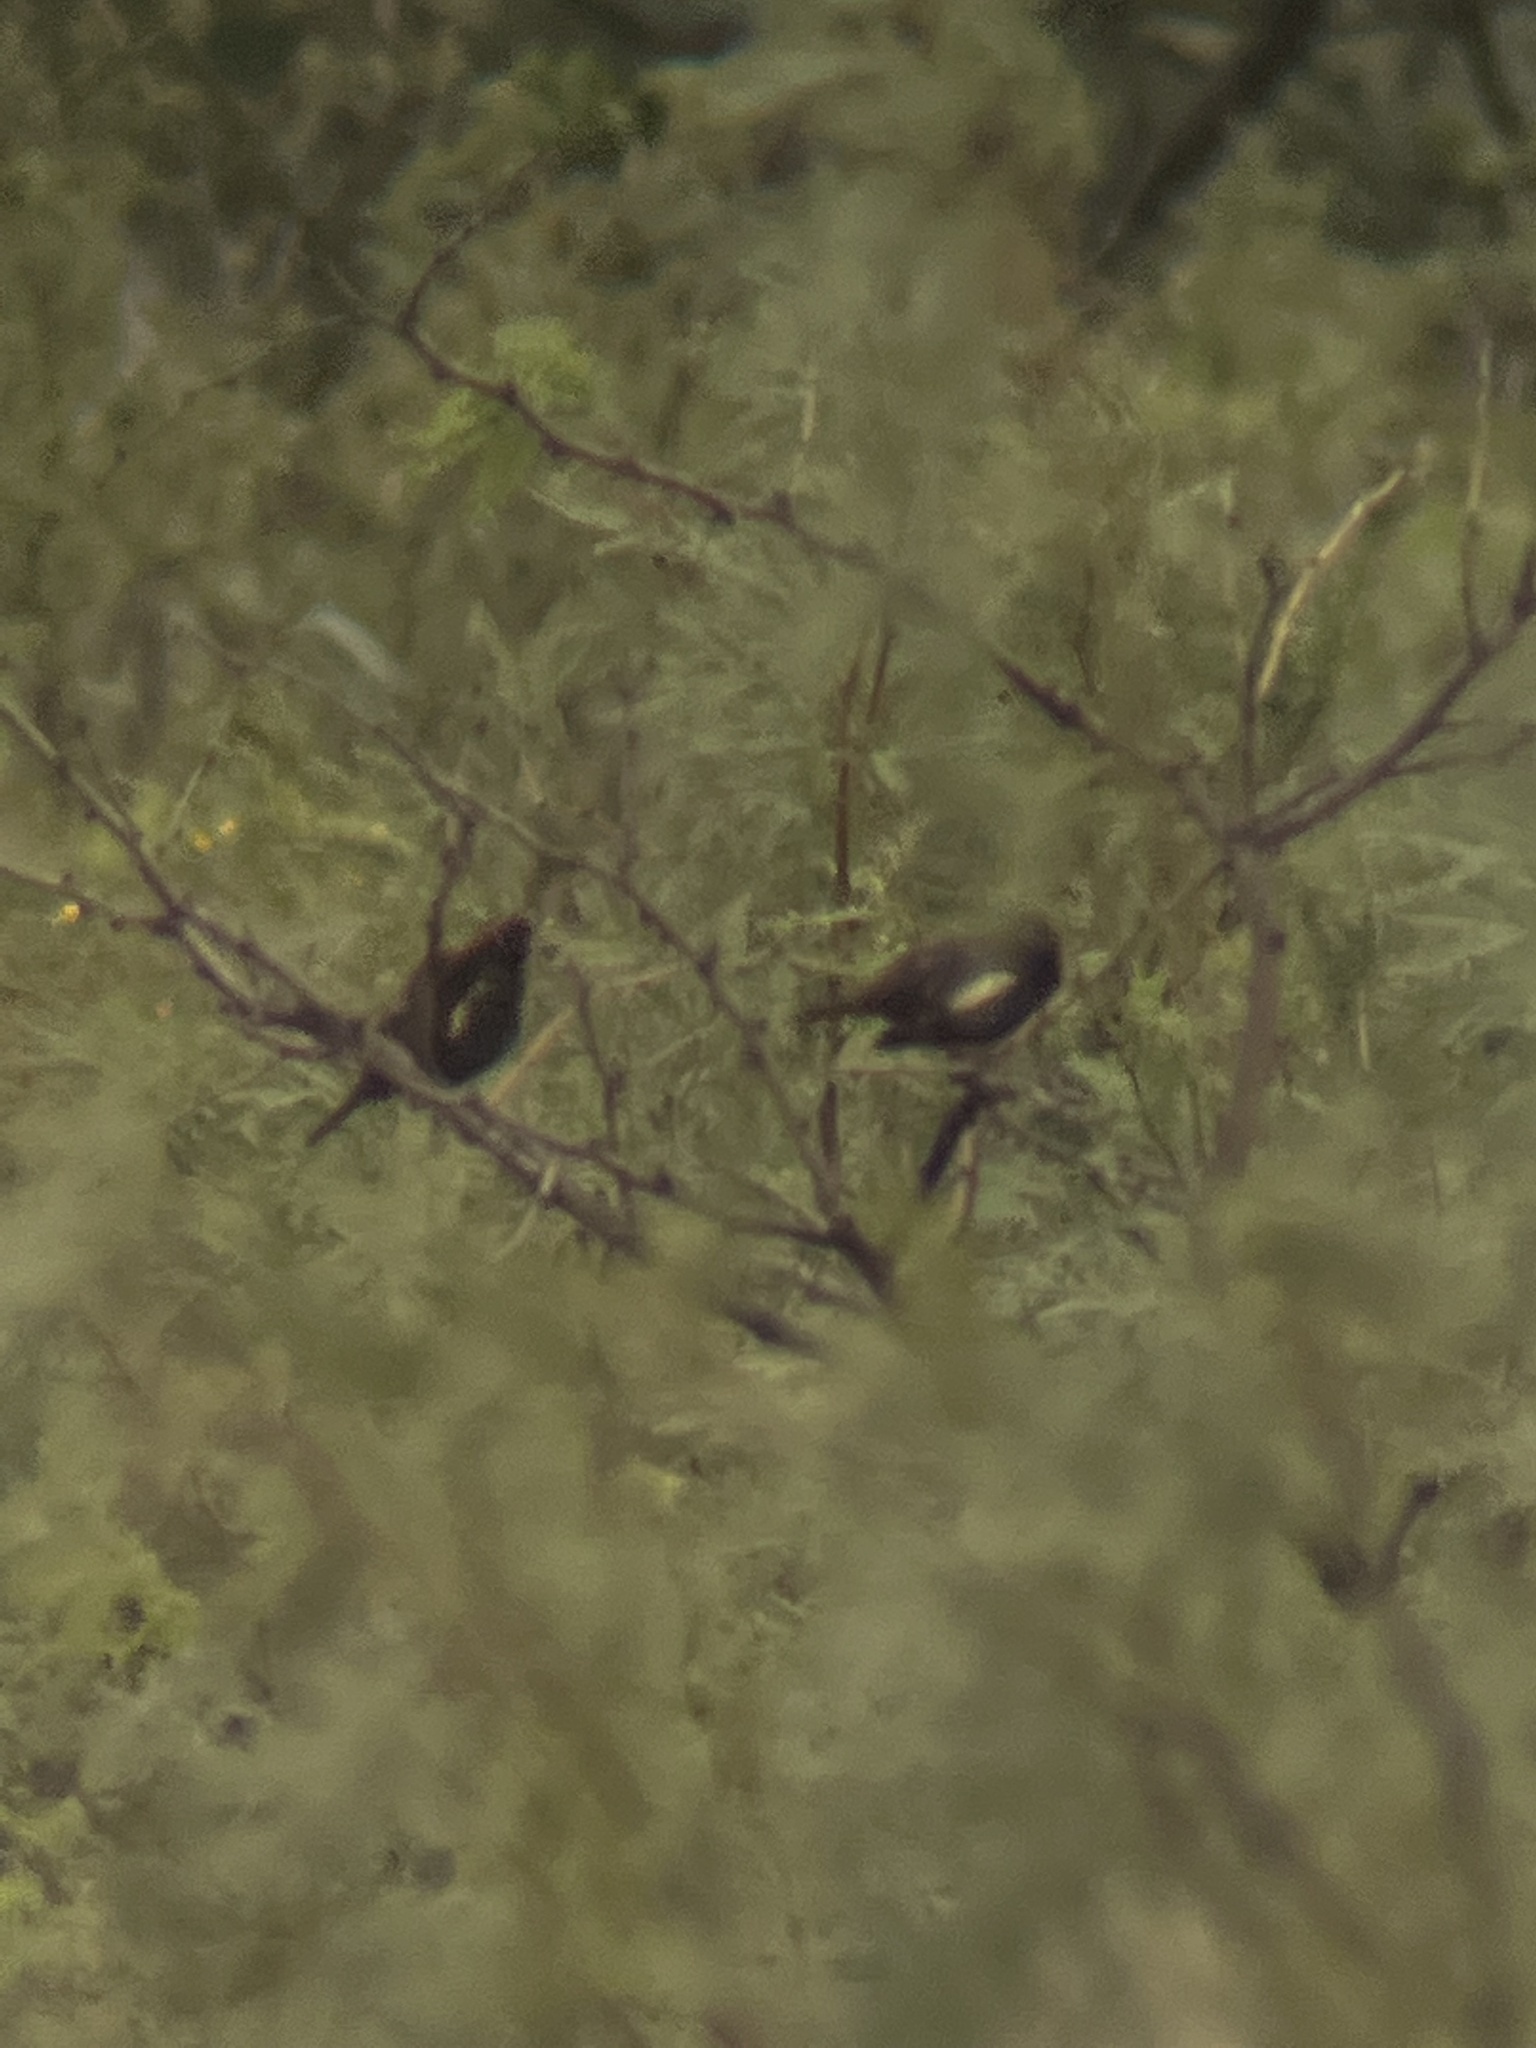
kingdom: Animalia
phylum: Chordata
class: Aves
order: Passeriformes
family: Passerellidae
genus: Calamospiza
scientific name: Calamospiza melanocorys
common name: Lark bunting
